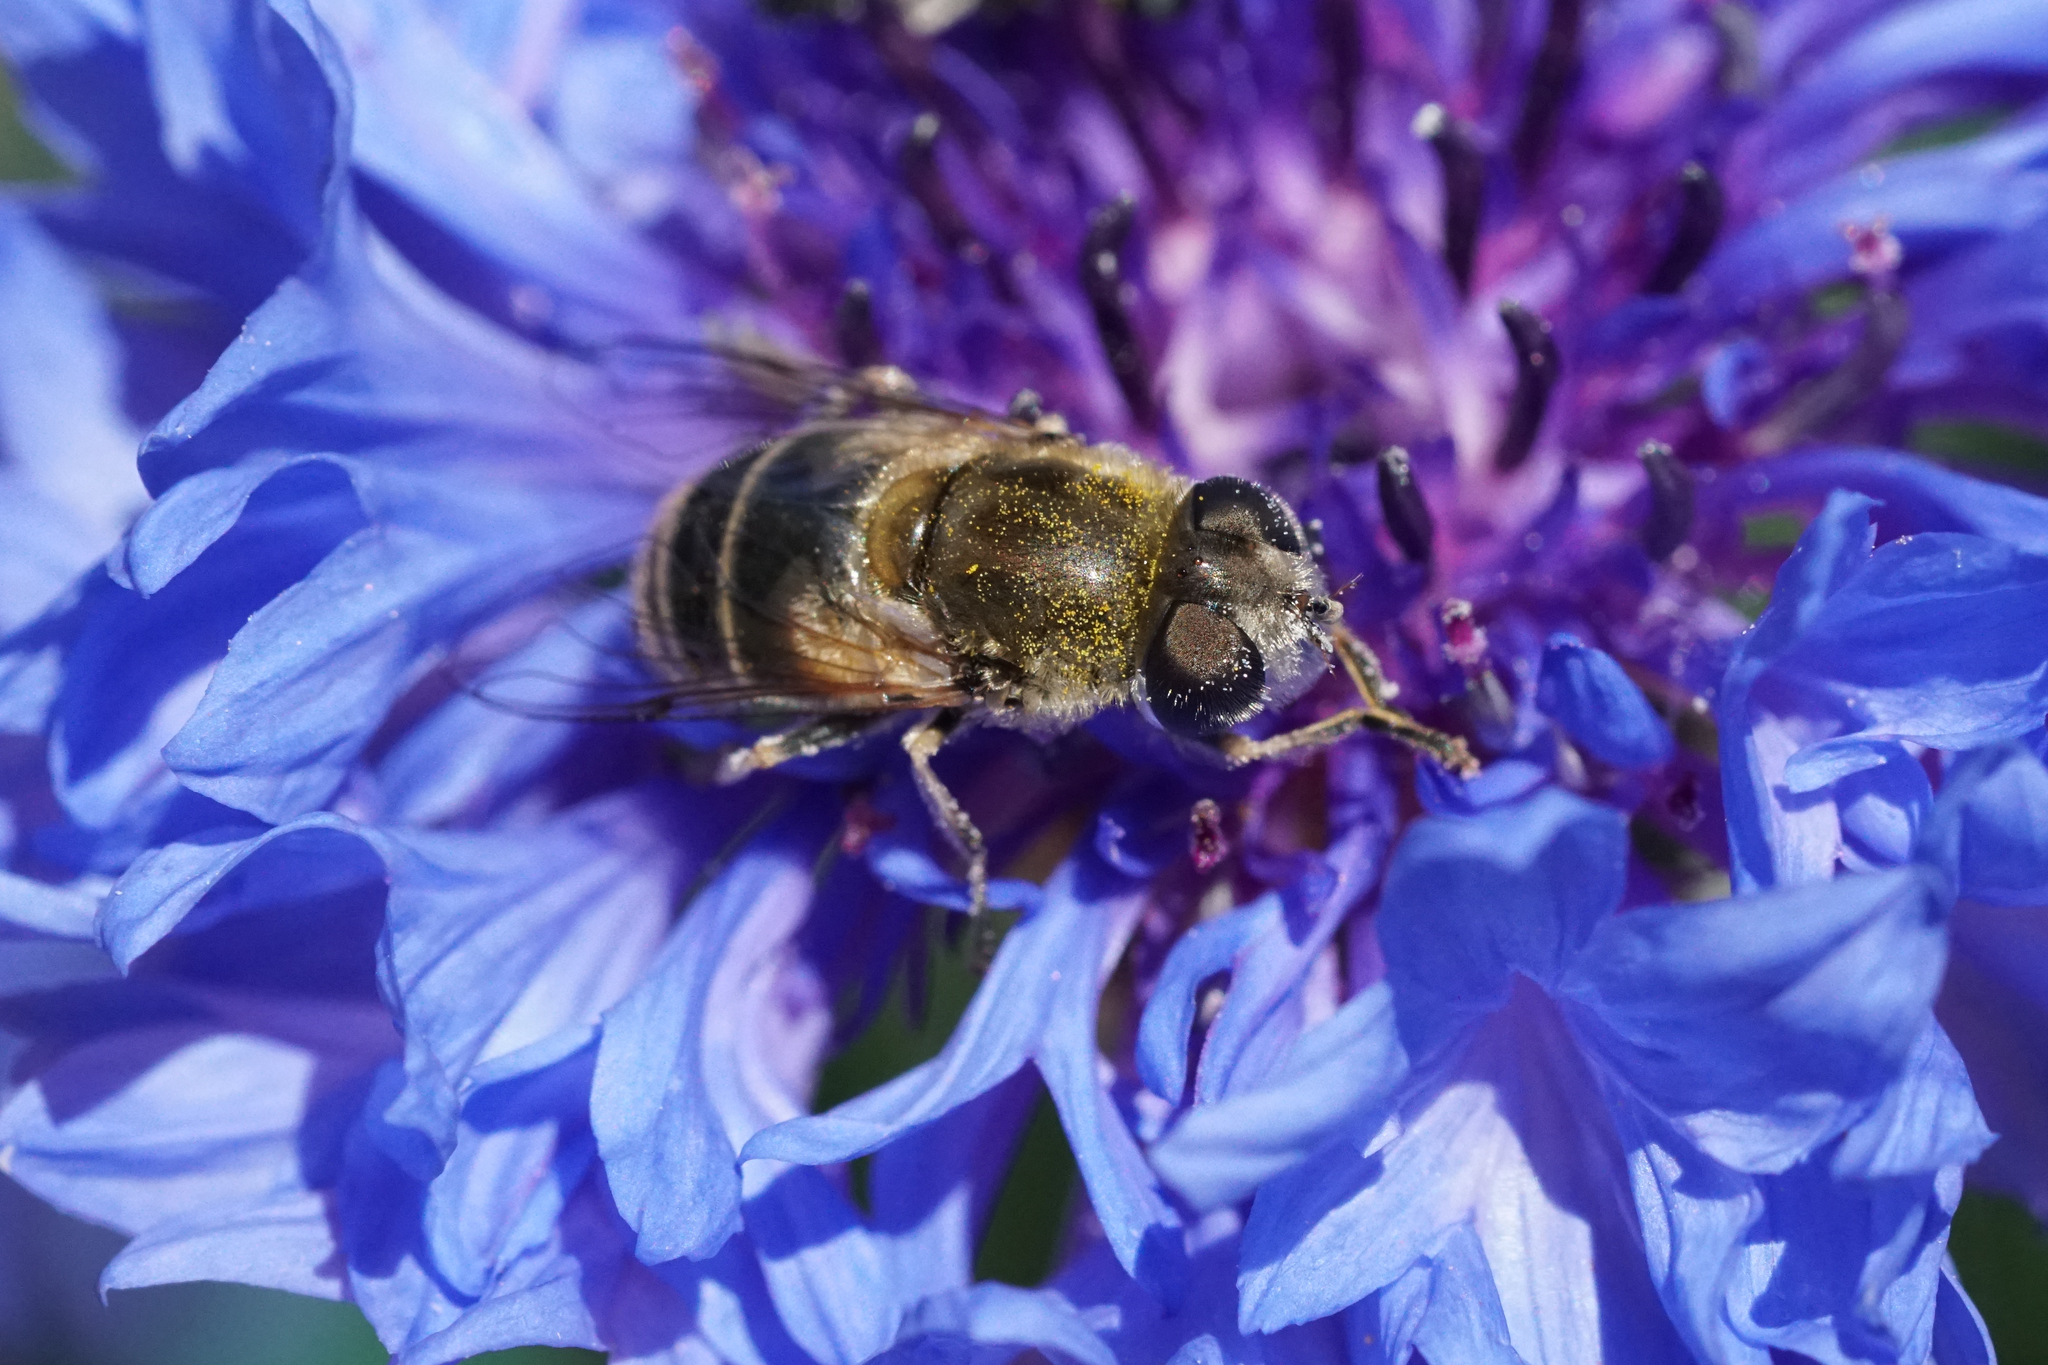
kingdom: Animalia
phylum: Arthropoda
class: Insecta
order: Diptera
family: Syrphidae
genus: Eristalis
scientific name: Eristalis arbustorum
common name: Hover fly
